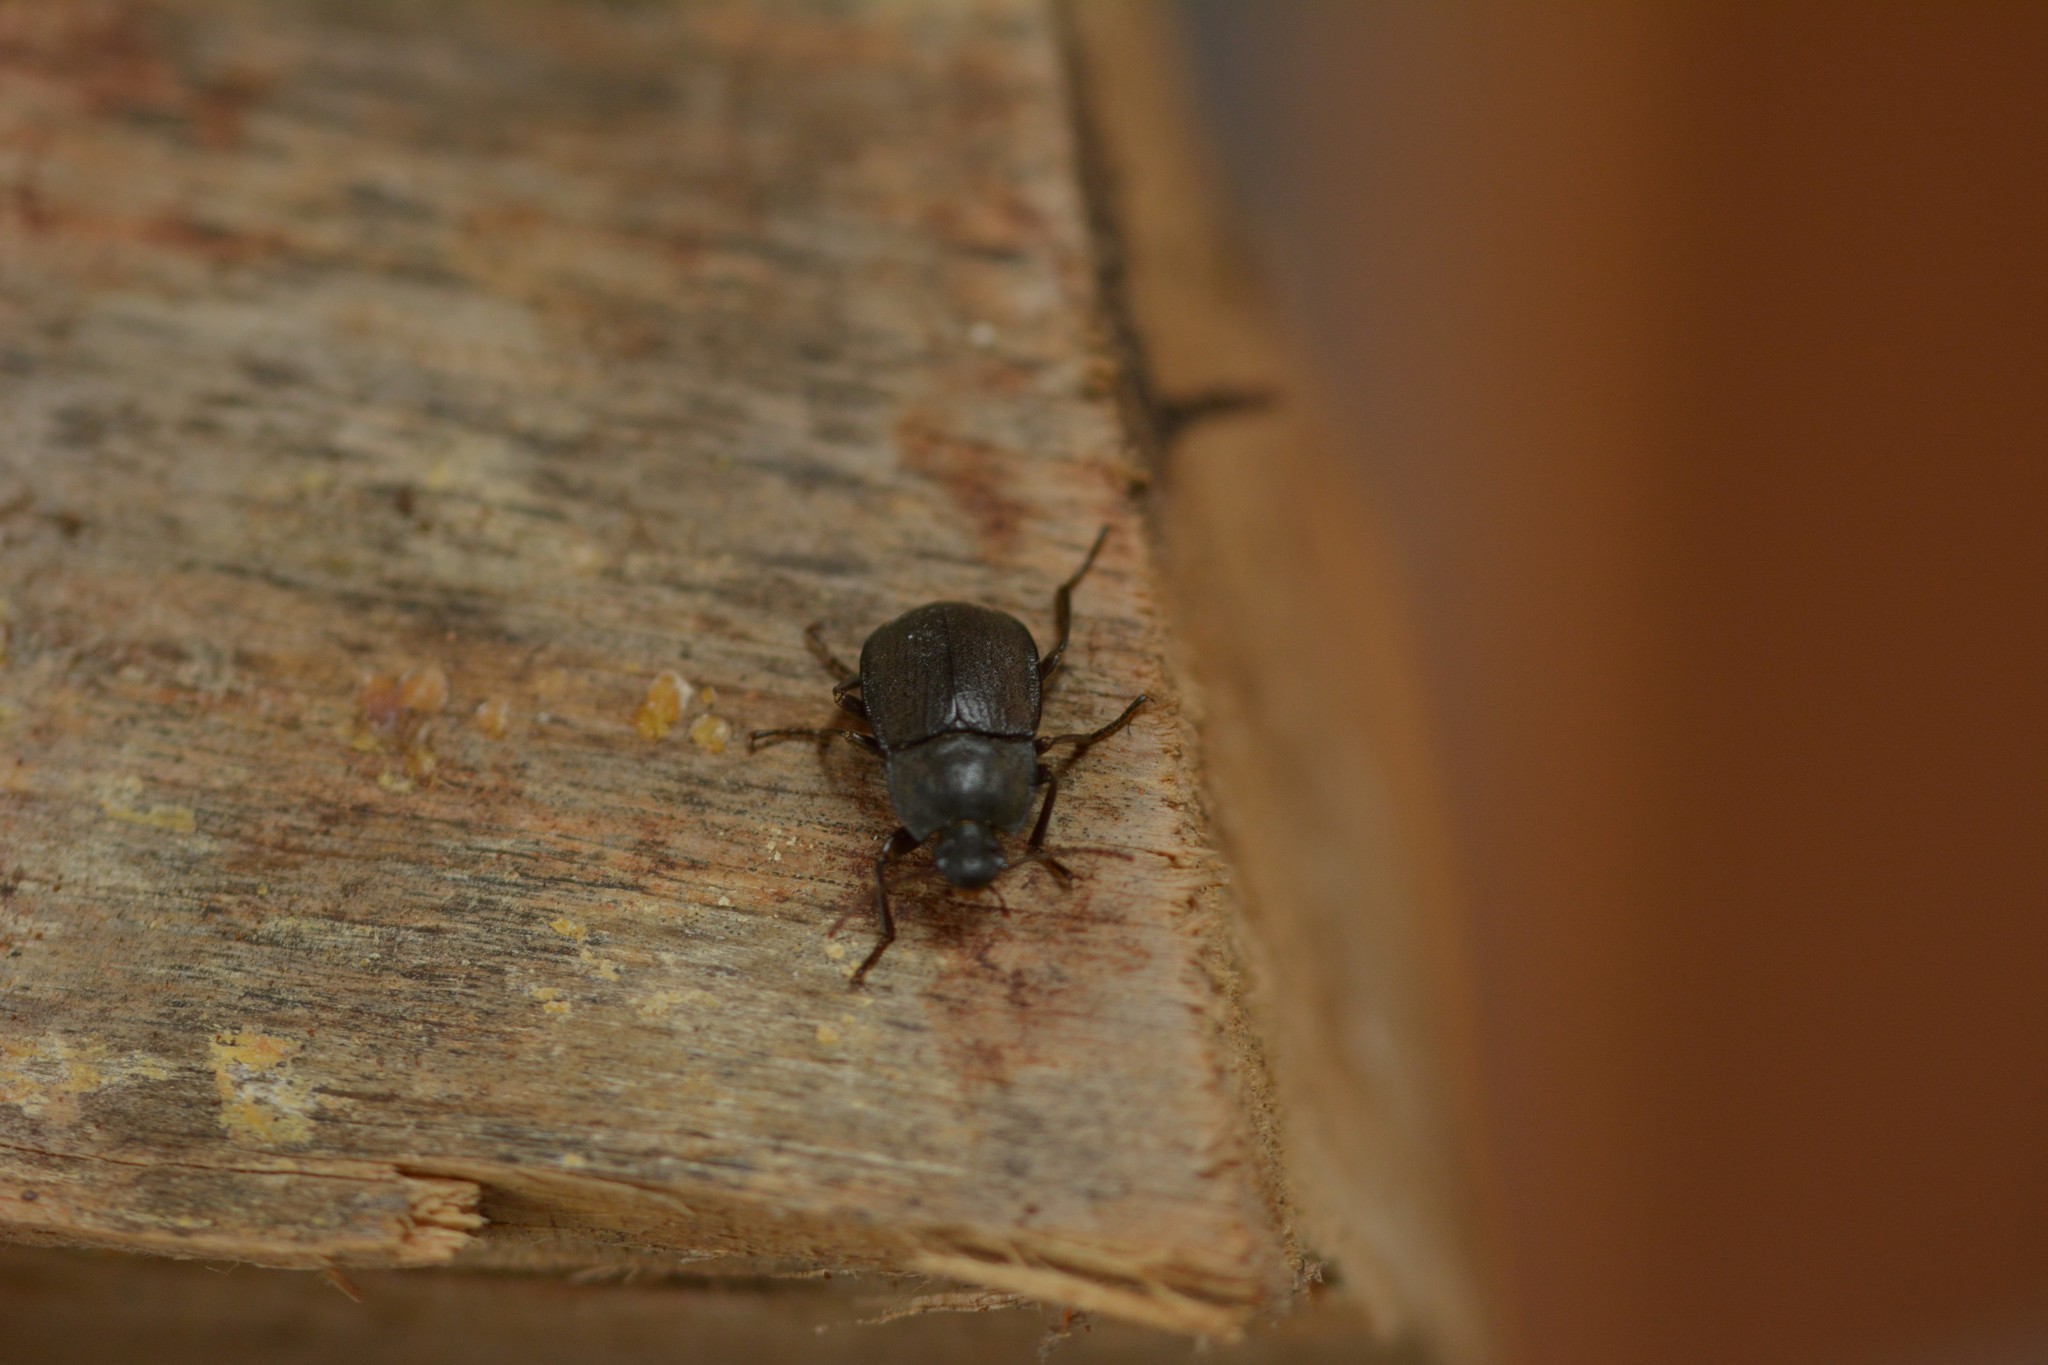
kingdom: Animalia
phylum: Arthropoda
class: Insecta
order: Coleoptera
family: Tenebrionidae
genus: Mimopeus
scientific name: Mimopeus
